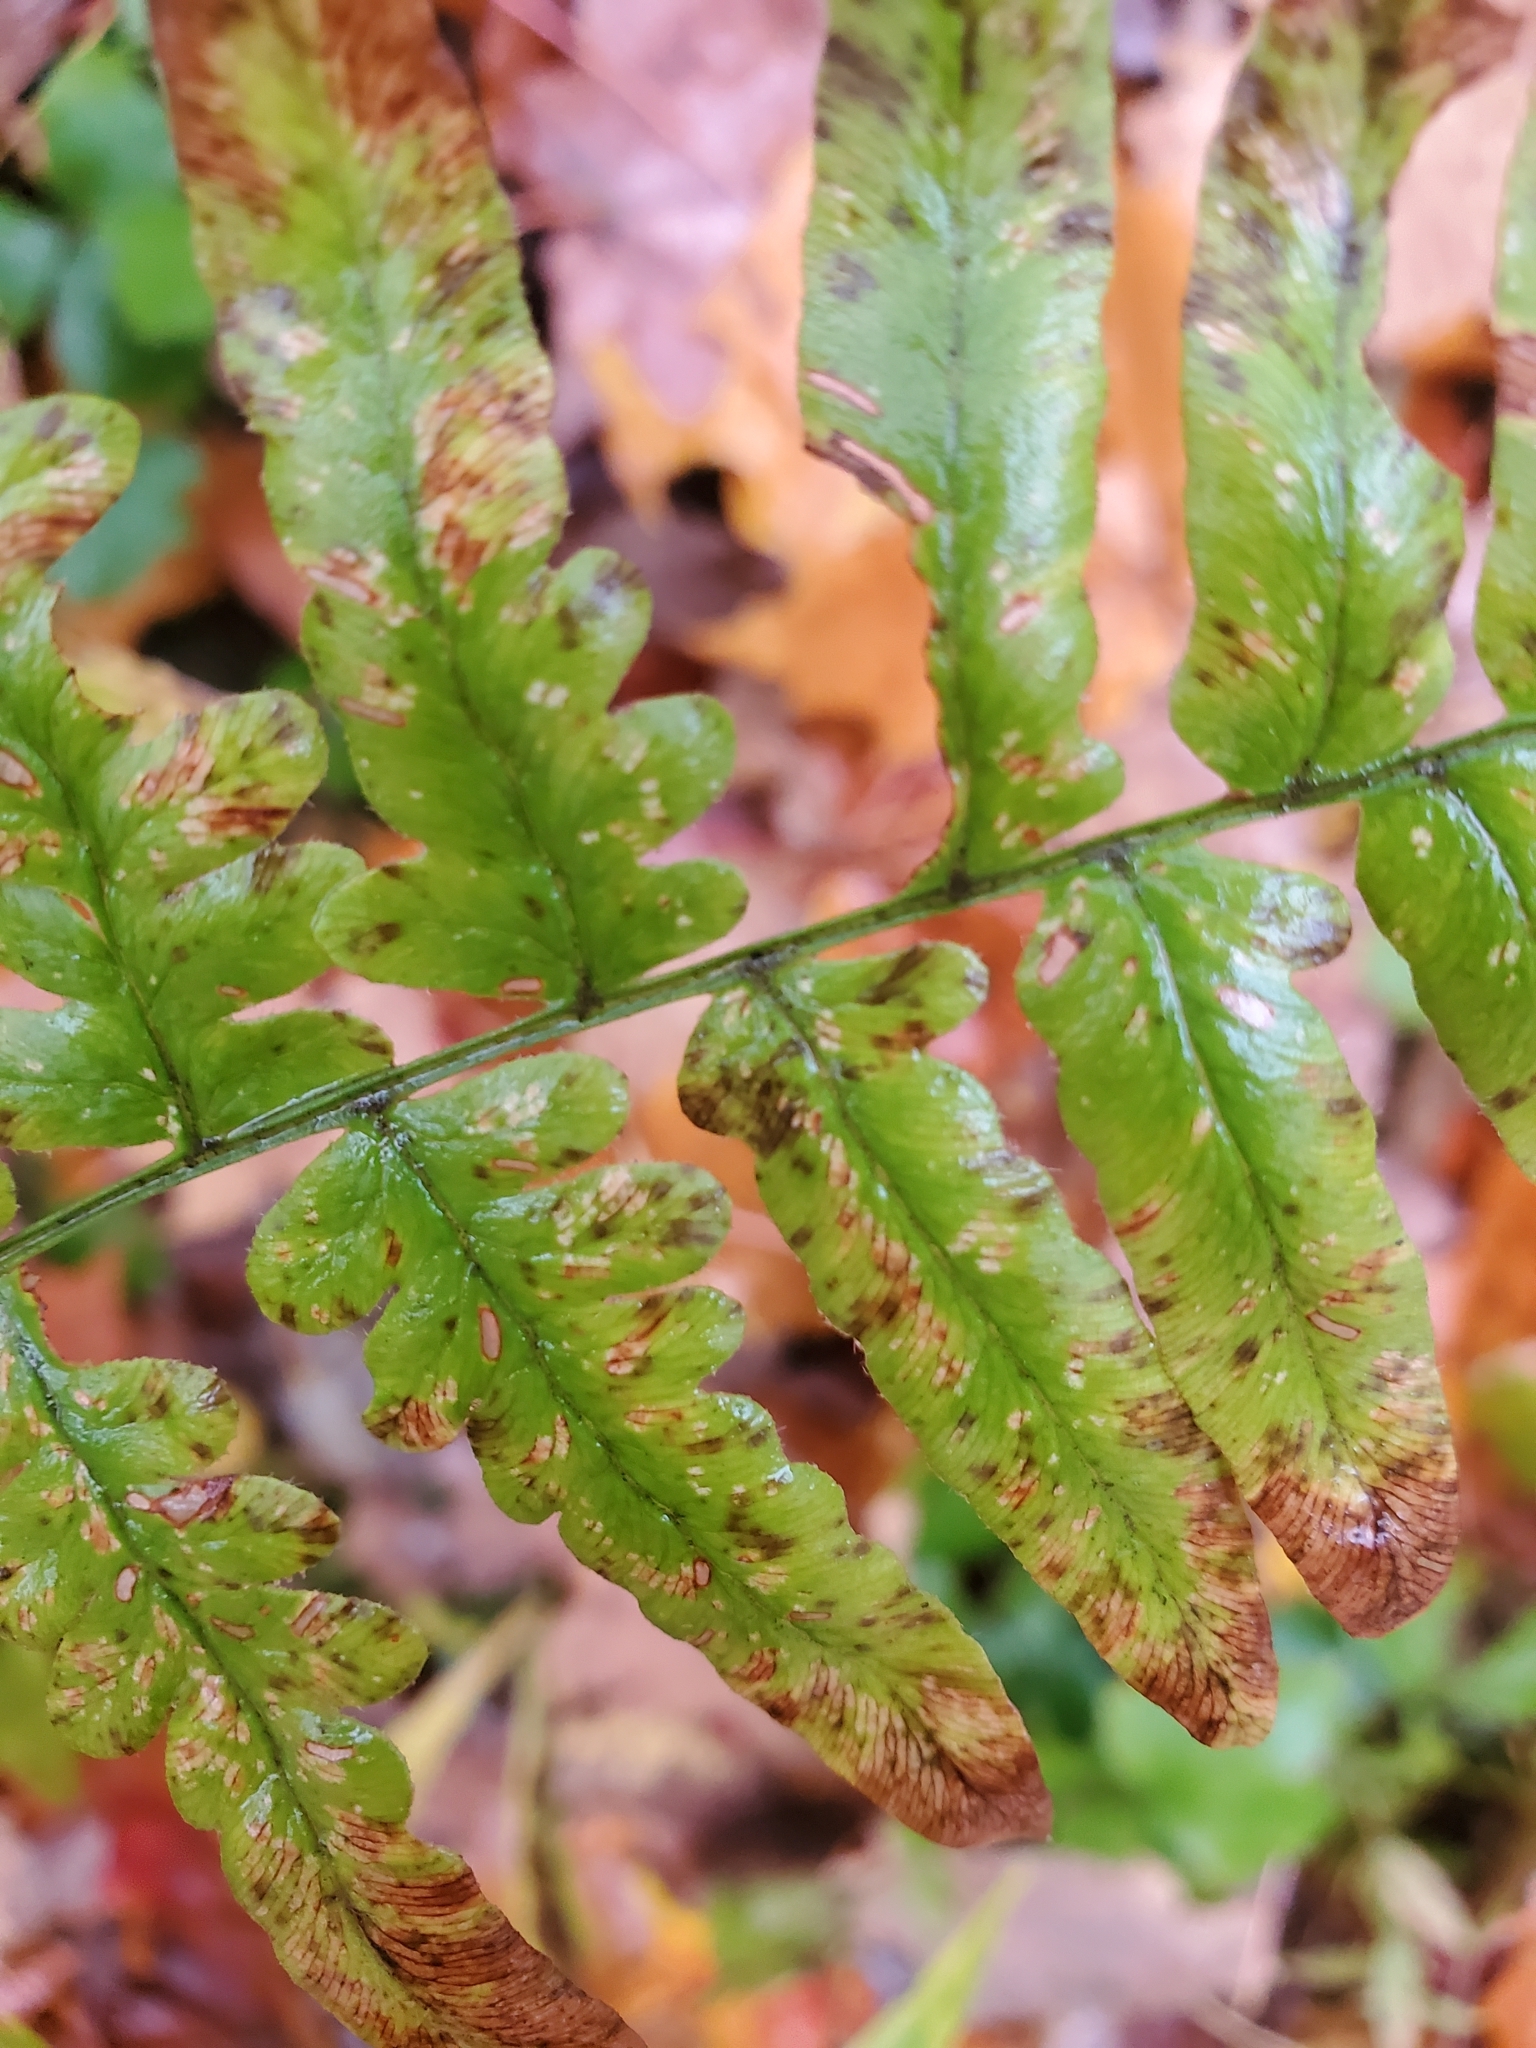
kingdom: Plantae
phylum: Tracheophyta
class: Polypodiopsida
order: Polypodiales
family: Dennstaedtiaceae
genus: Pteridium
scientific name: Pteridium aquilinum
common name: Bracken
